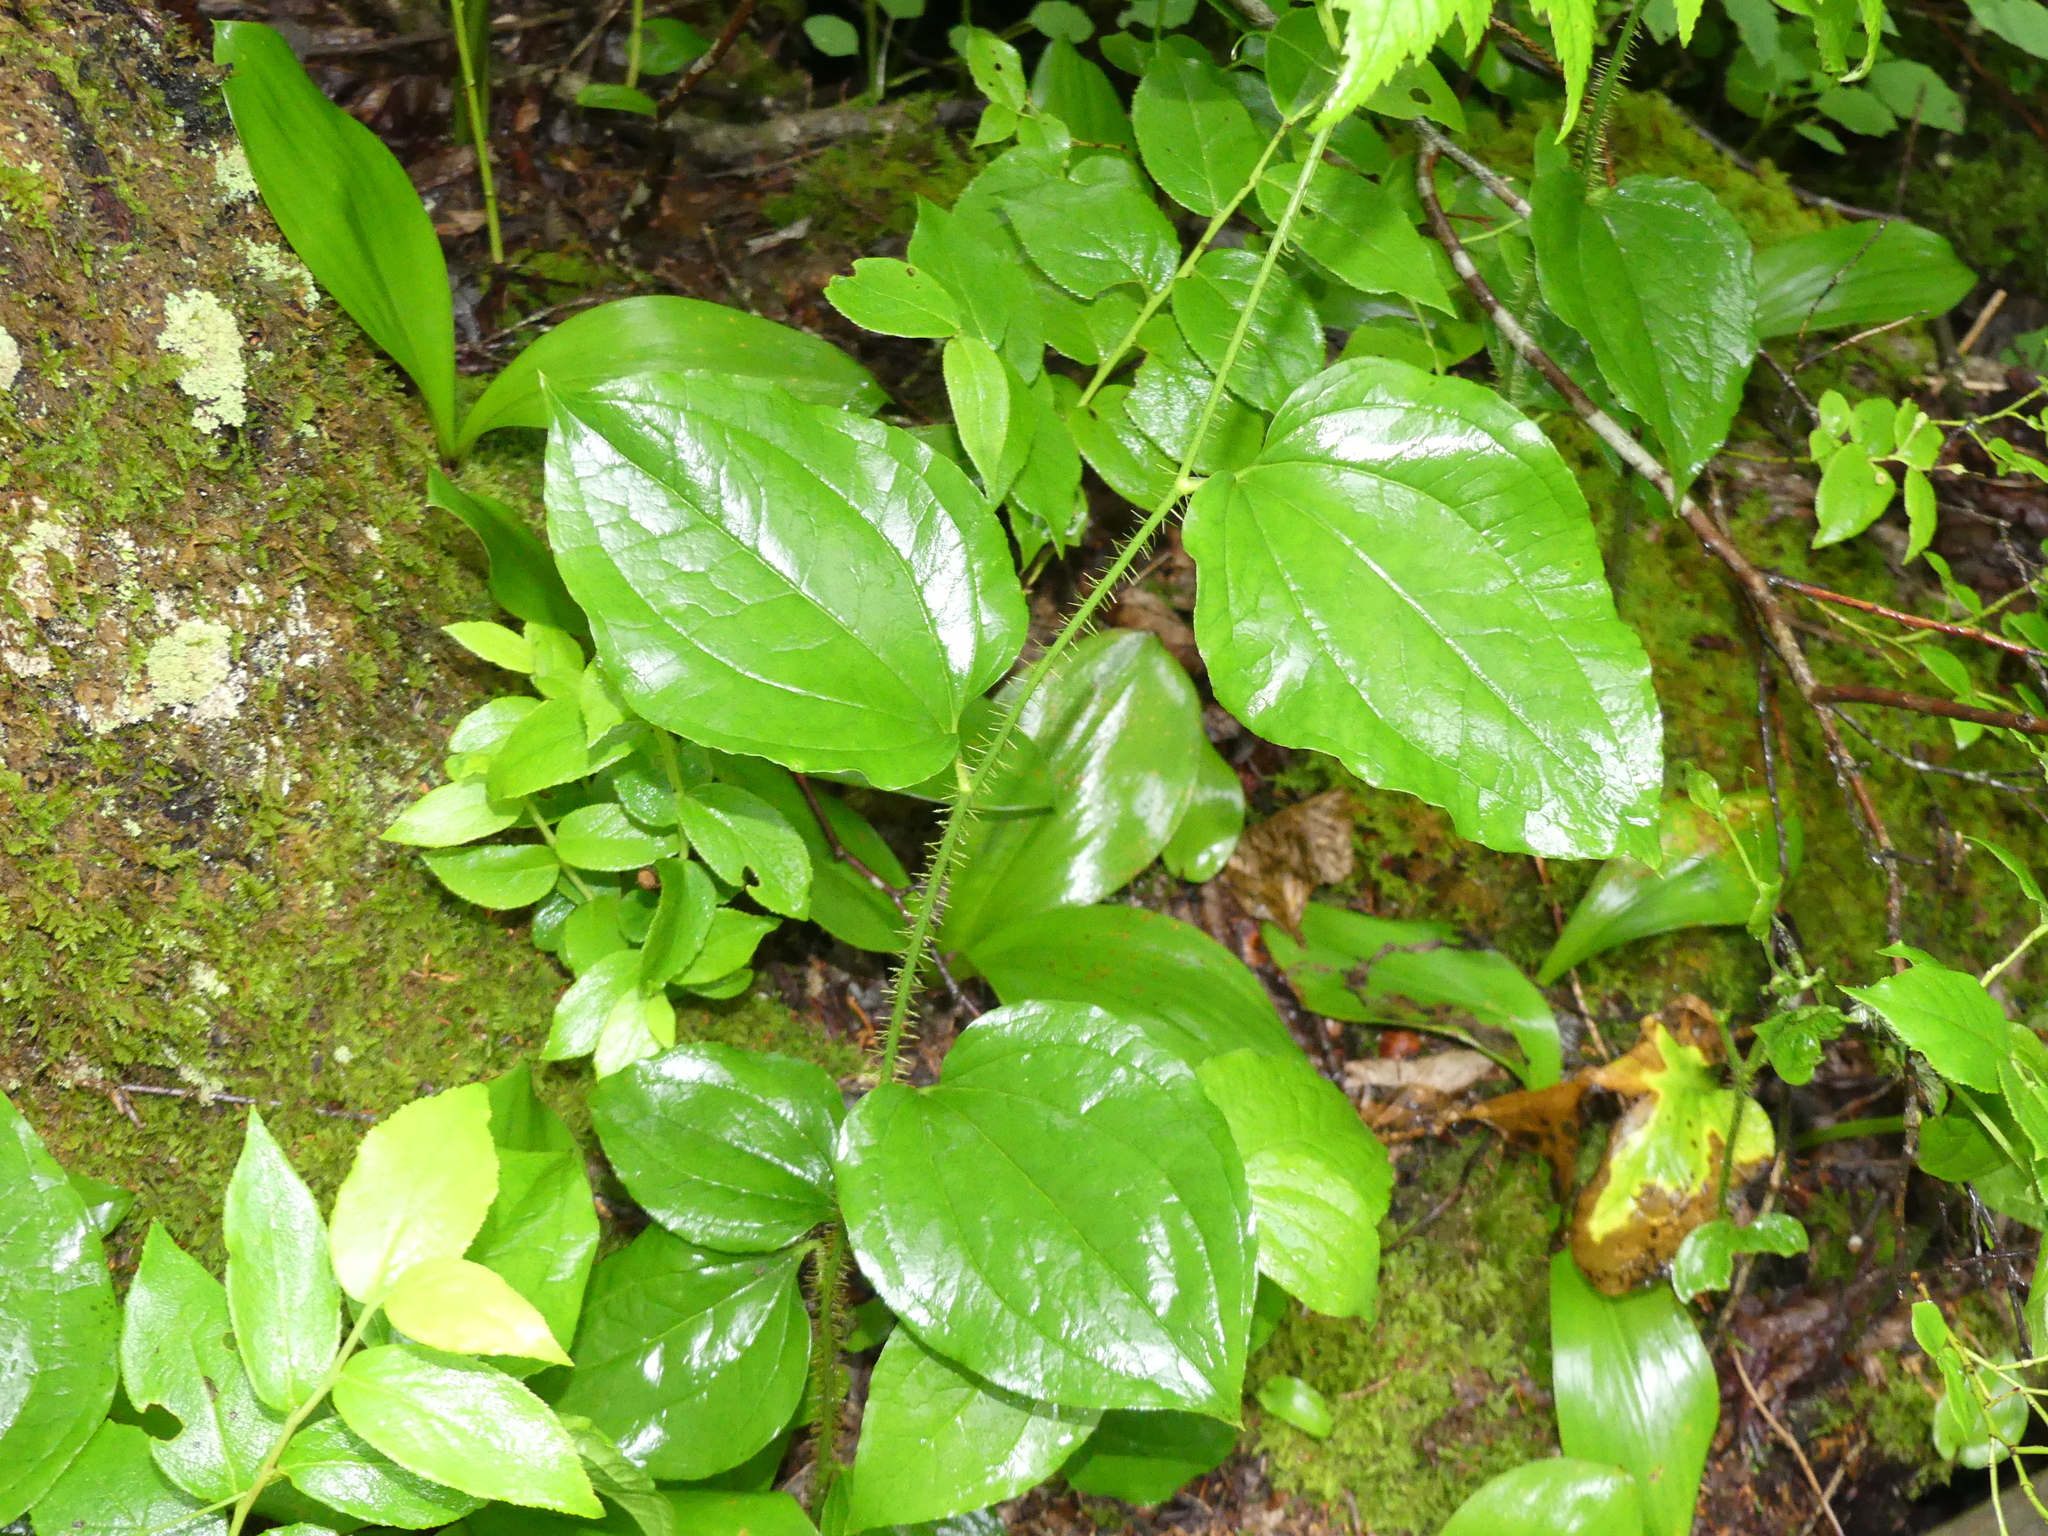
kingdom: Plantae
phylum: Tracheophyta
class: Liliopsida
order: Liliales
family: Smilacaceae
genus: Smilax
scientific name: Smilax tamnoides
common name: Hellfetter
